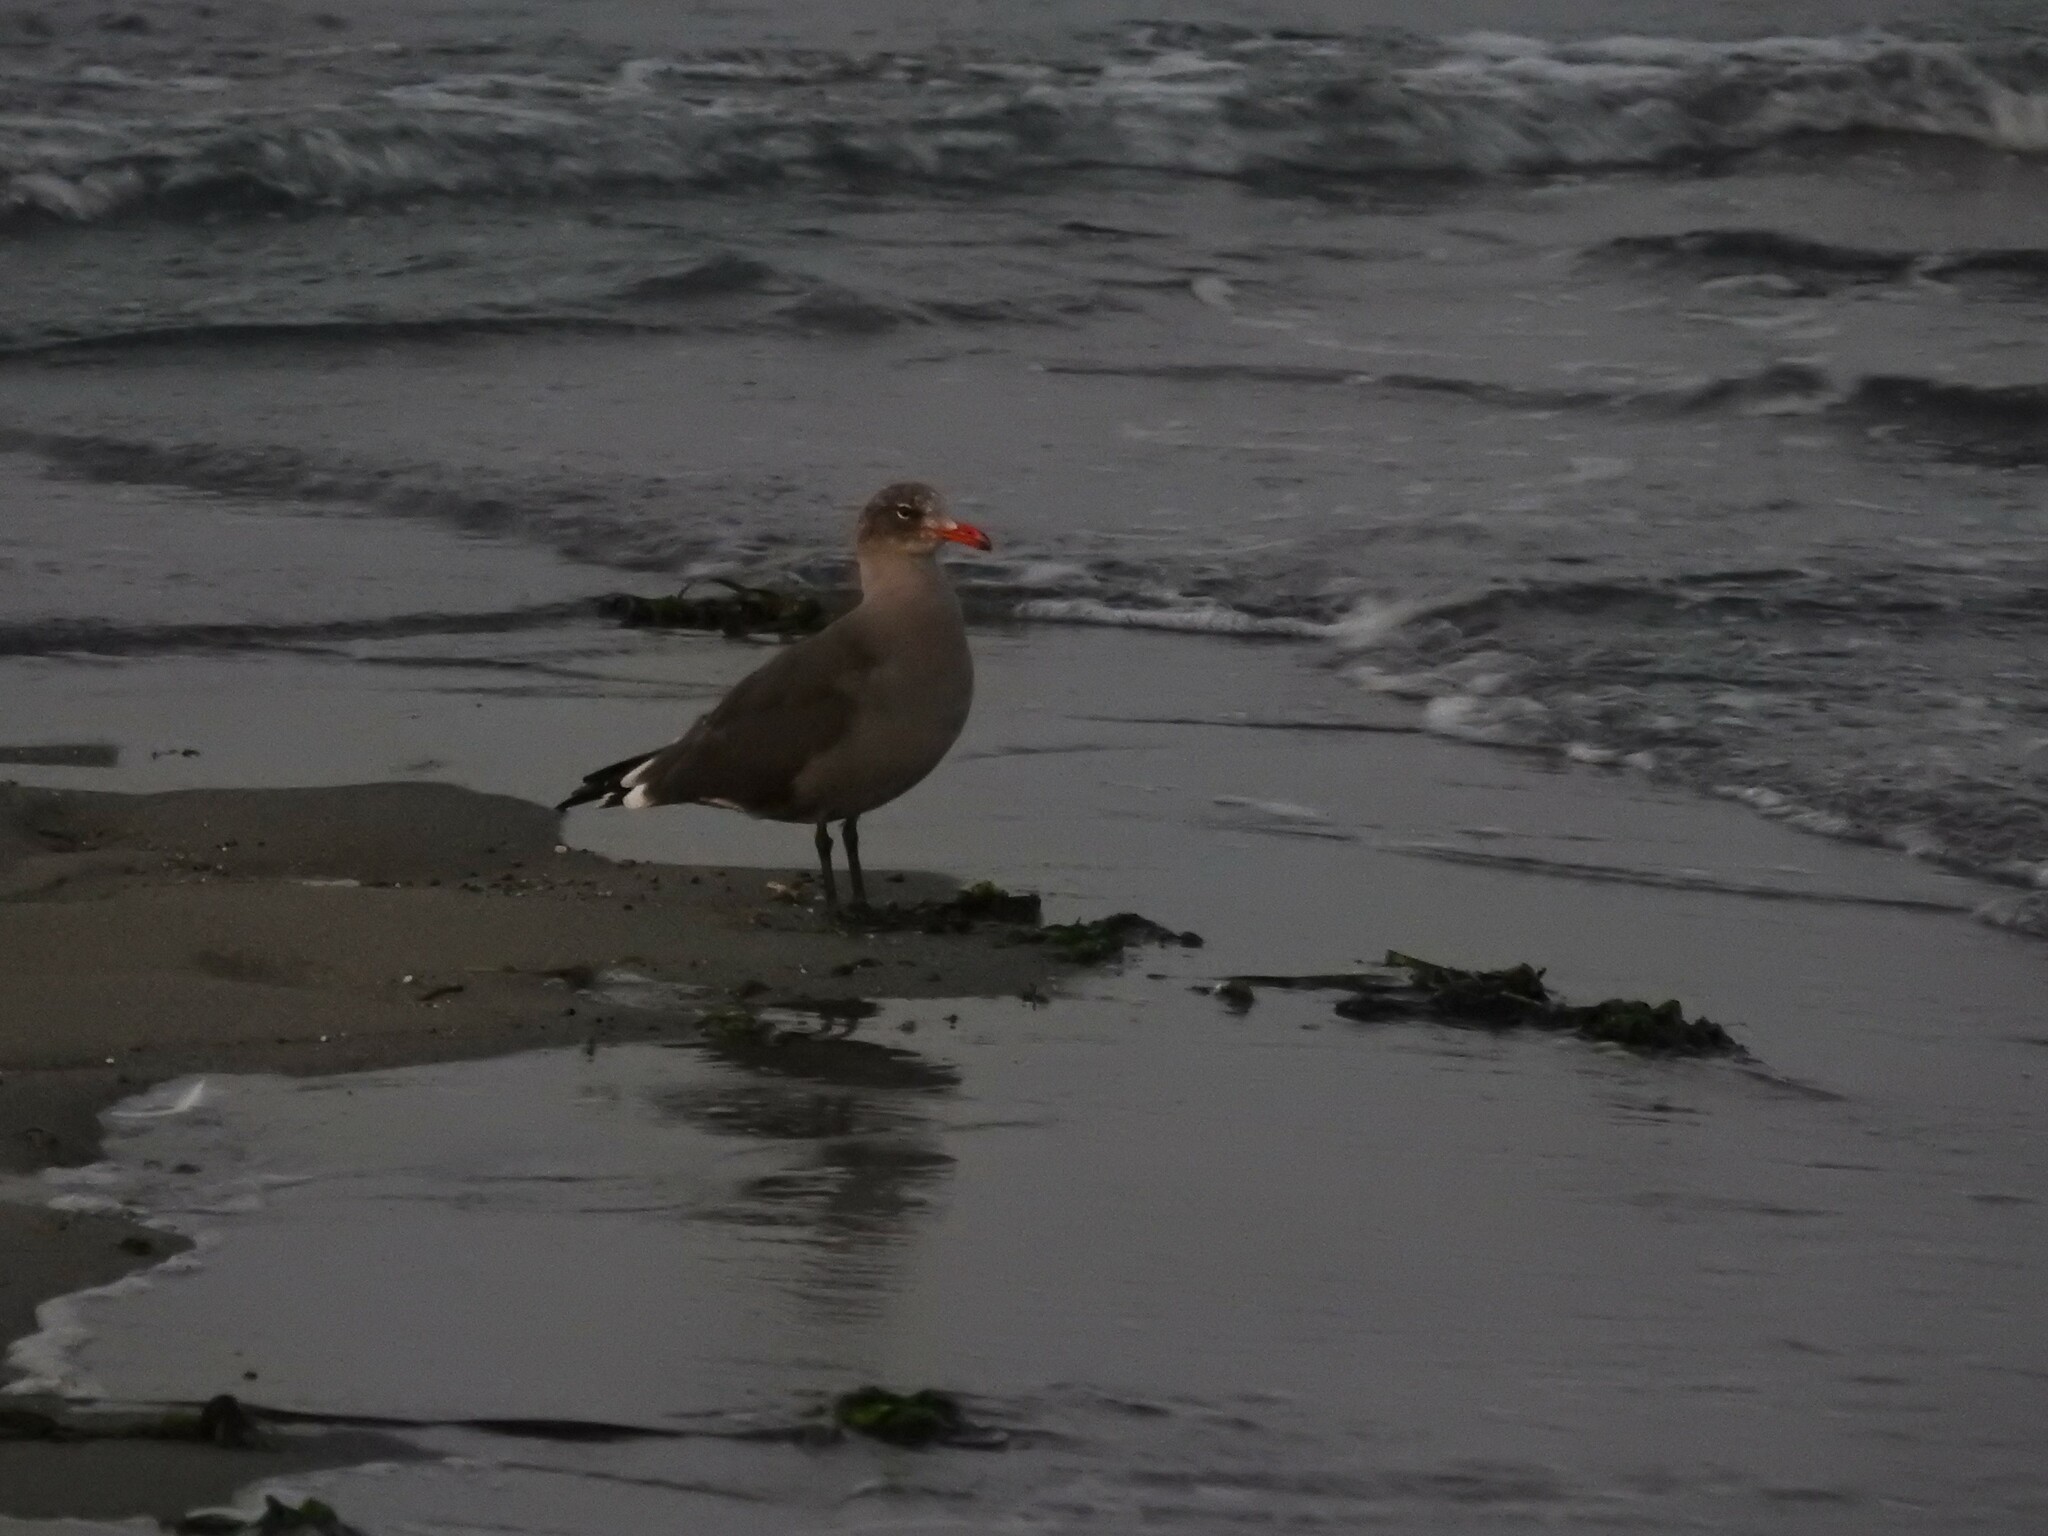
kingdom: Animalia
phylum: Chordata
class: Aves
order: Charadriiformes
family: Laridae
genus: Larus
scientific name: Larus heermanni
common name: Heermann's gull
